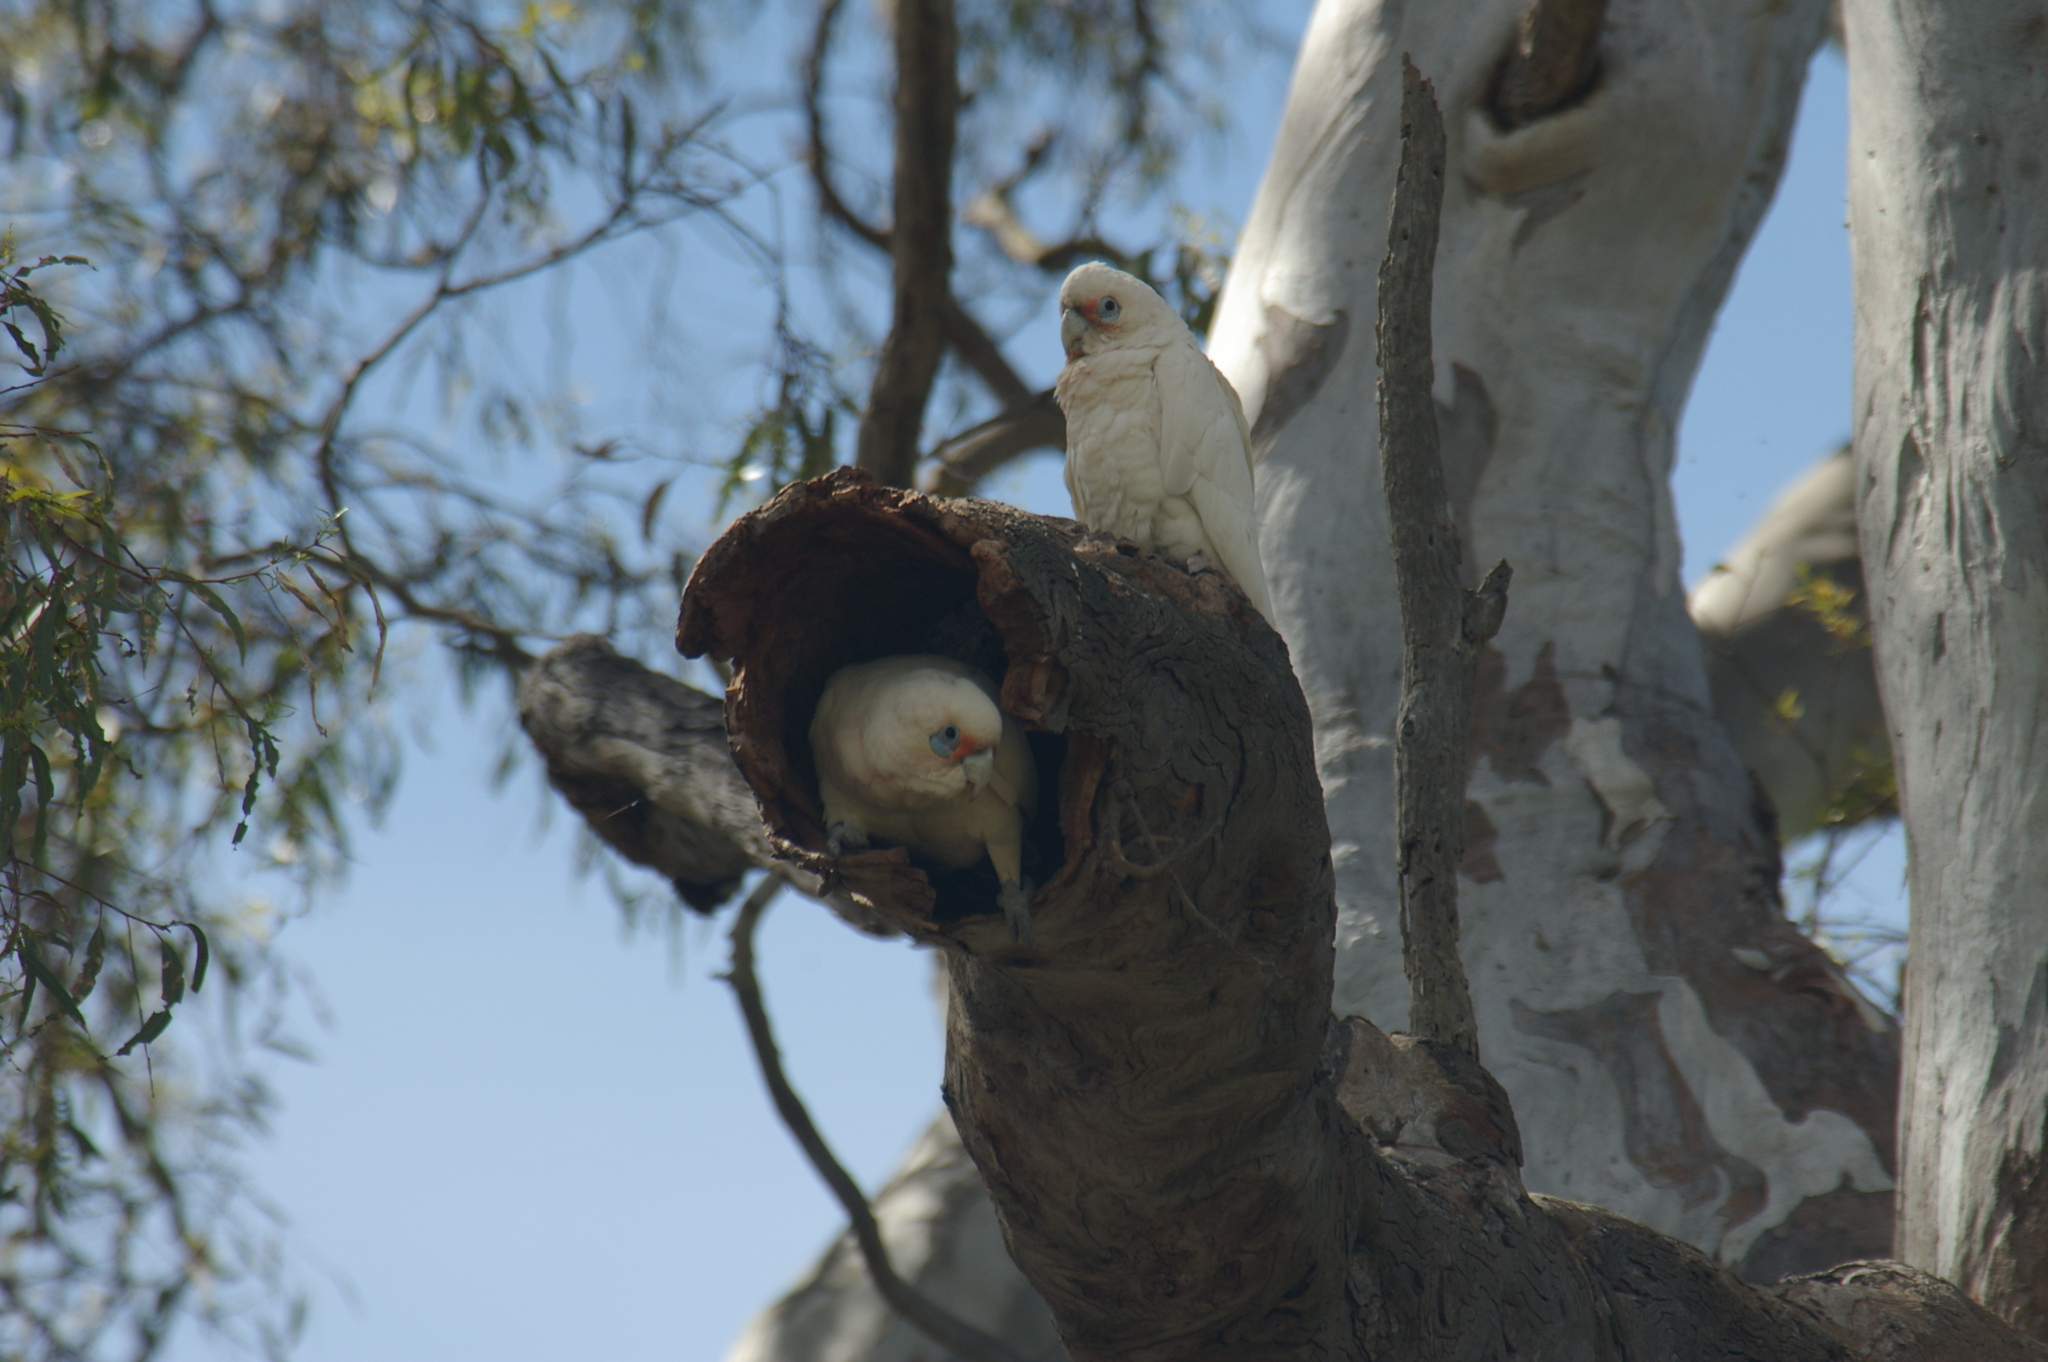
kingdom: Animalia
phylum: Chordata
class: Aves
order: Psittaciformes
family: Psittacidae
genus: Cacatua
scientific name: Cacatua sanguinea
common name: Little corella
